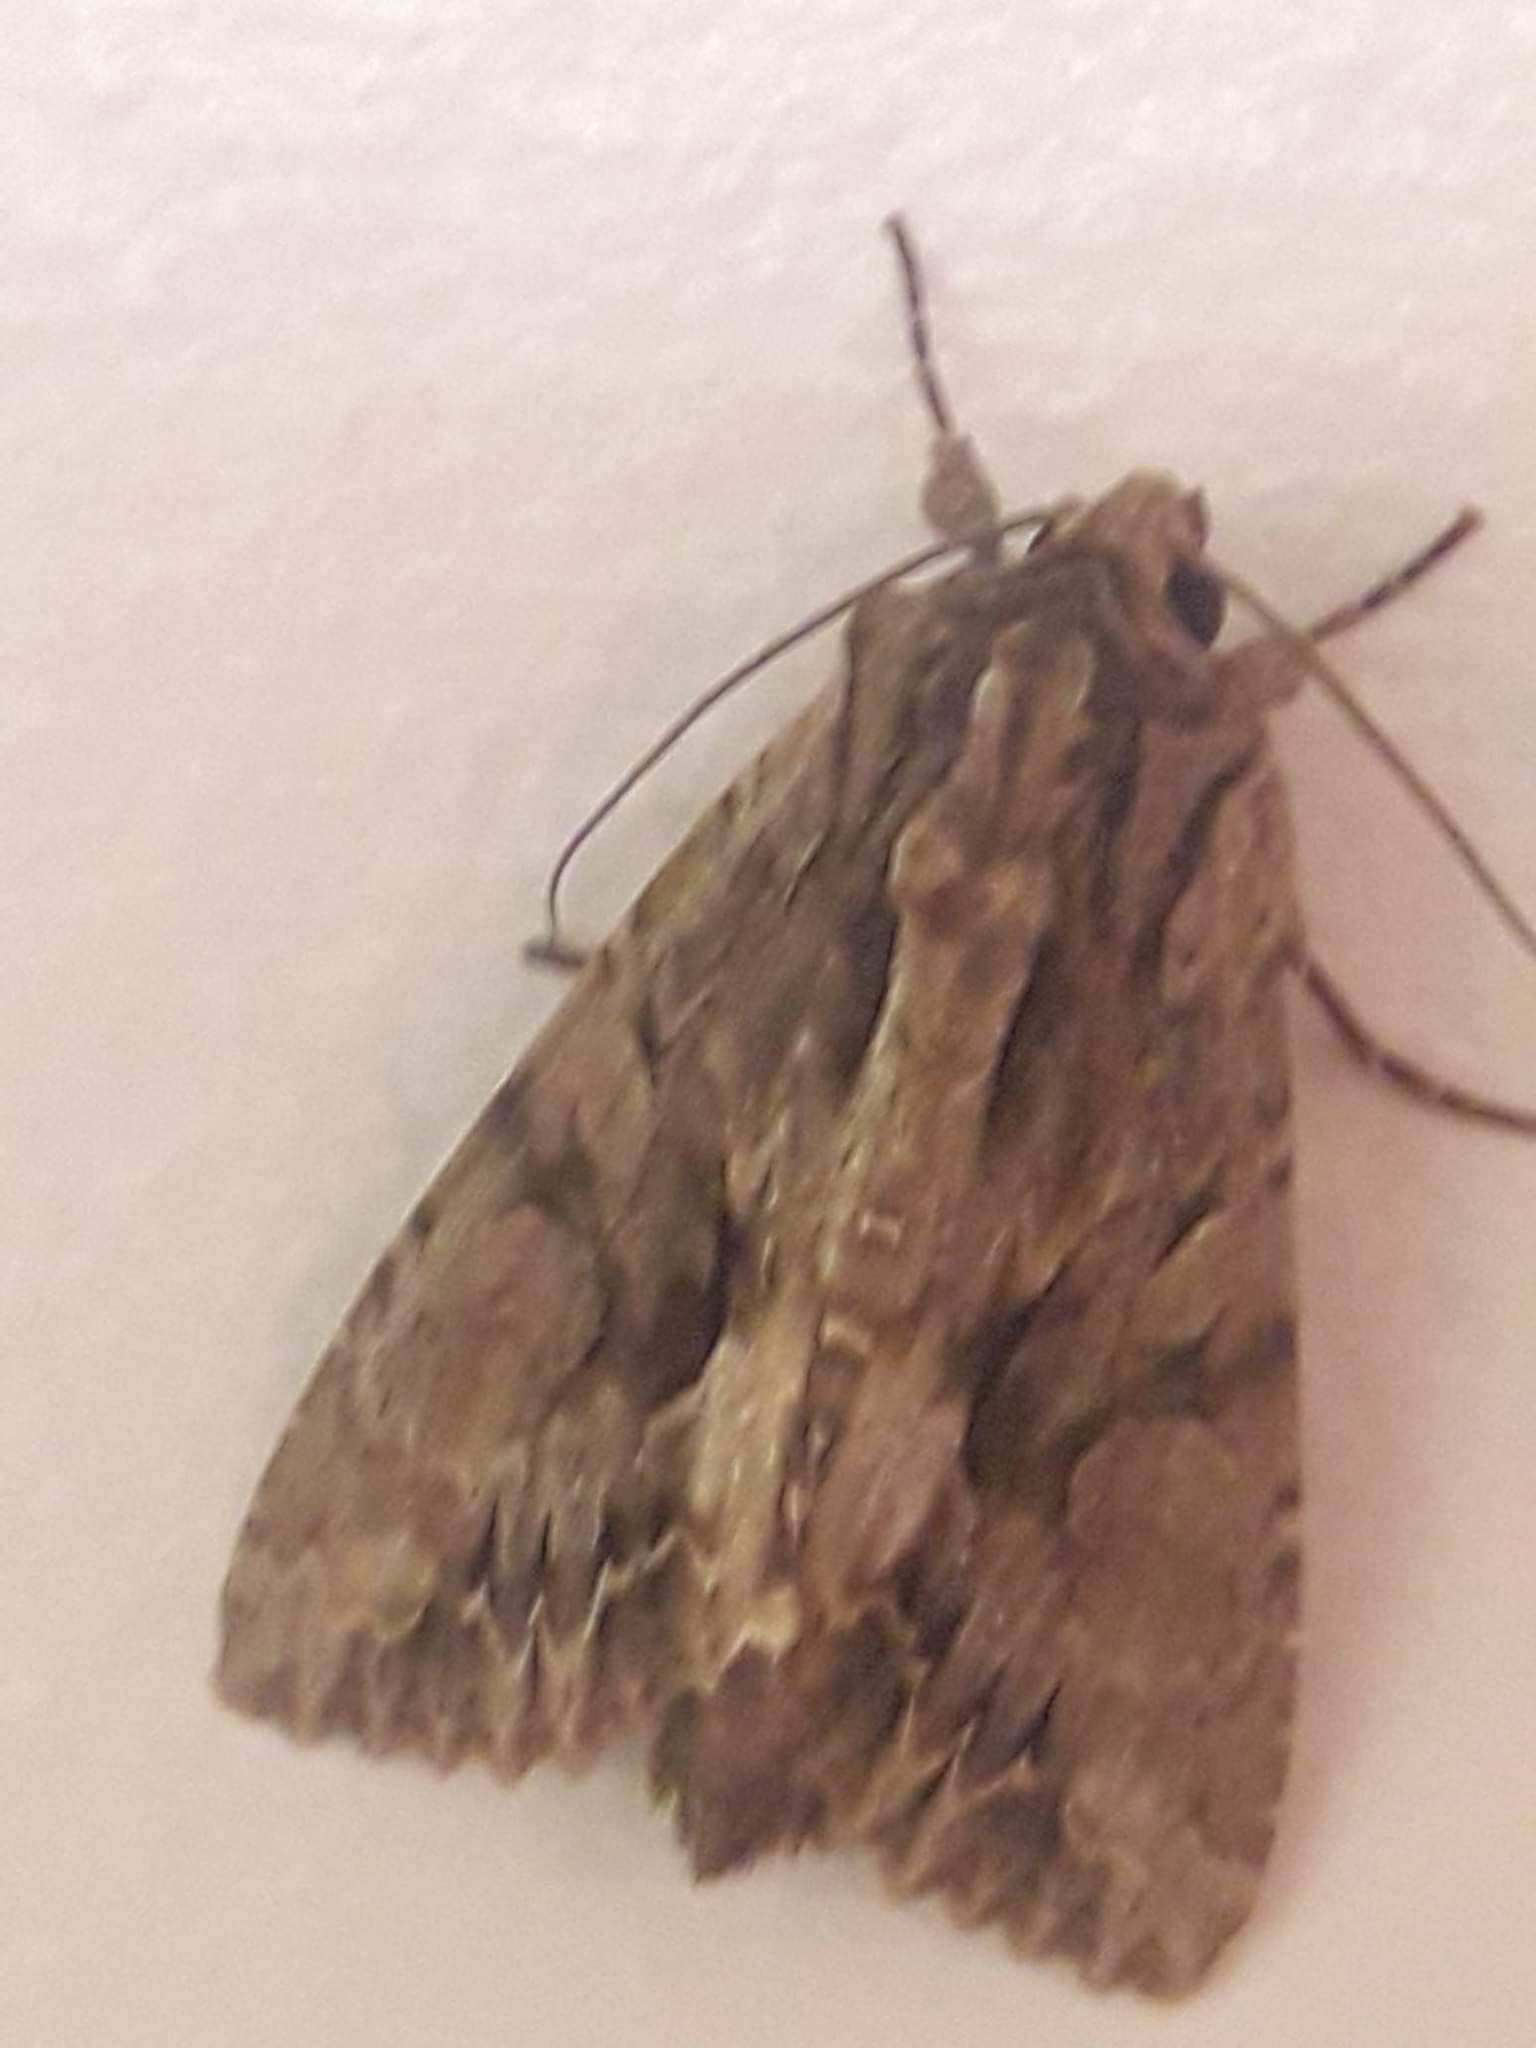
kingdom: Animalia
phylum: Arthropoda
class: Insecta
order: Lepidoptera
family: Noctuidae
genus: Apamea
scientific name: Apamea monoglypha
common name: Dark arches
